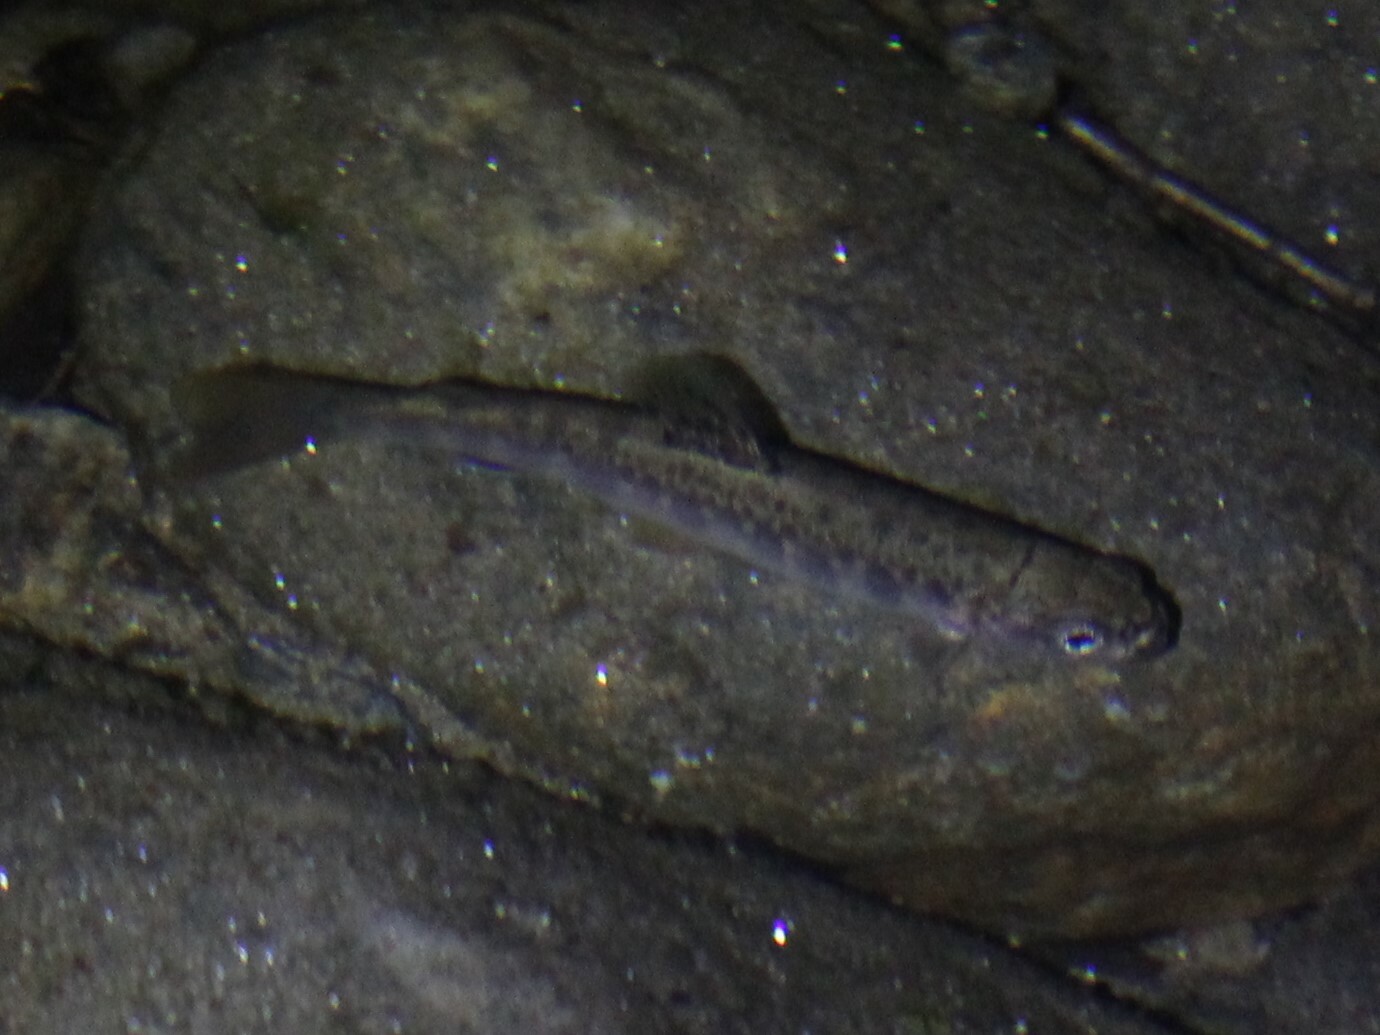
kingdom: Animalia
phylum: Chordata
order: Salmoniformes
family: Salmonidae
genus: Salvelinus
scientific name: Salvelinus fontinalis
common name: Brook trout
